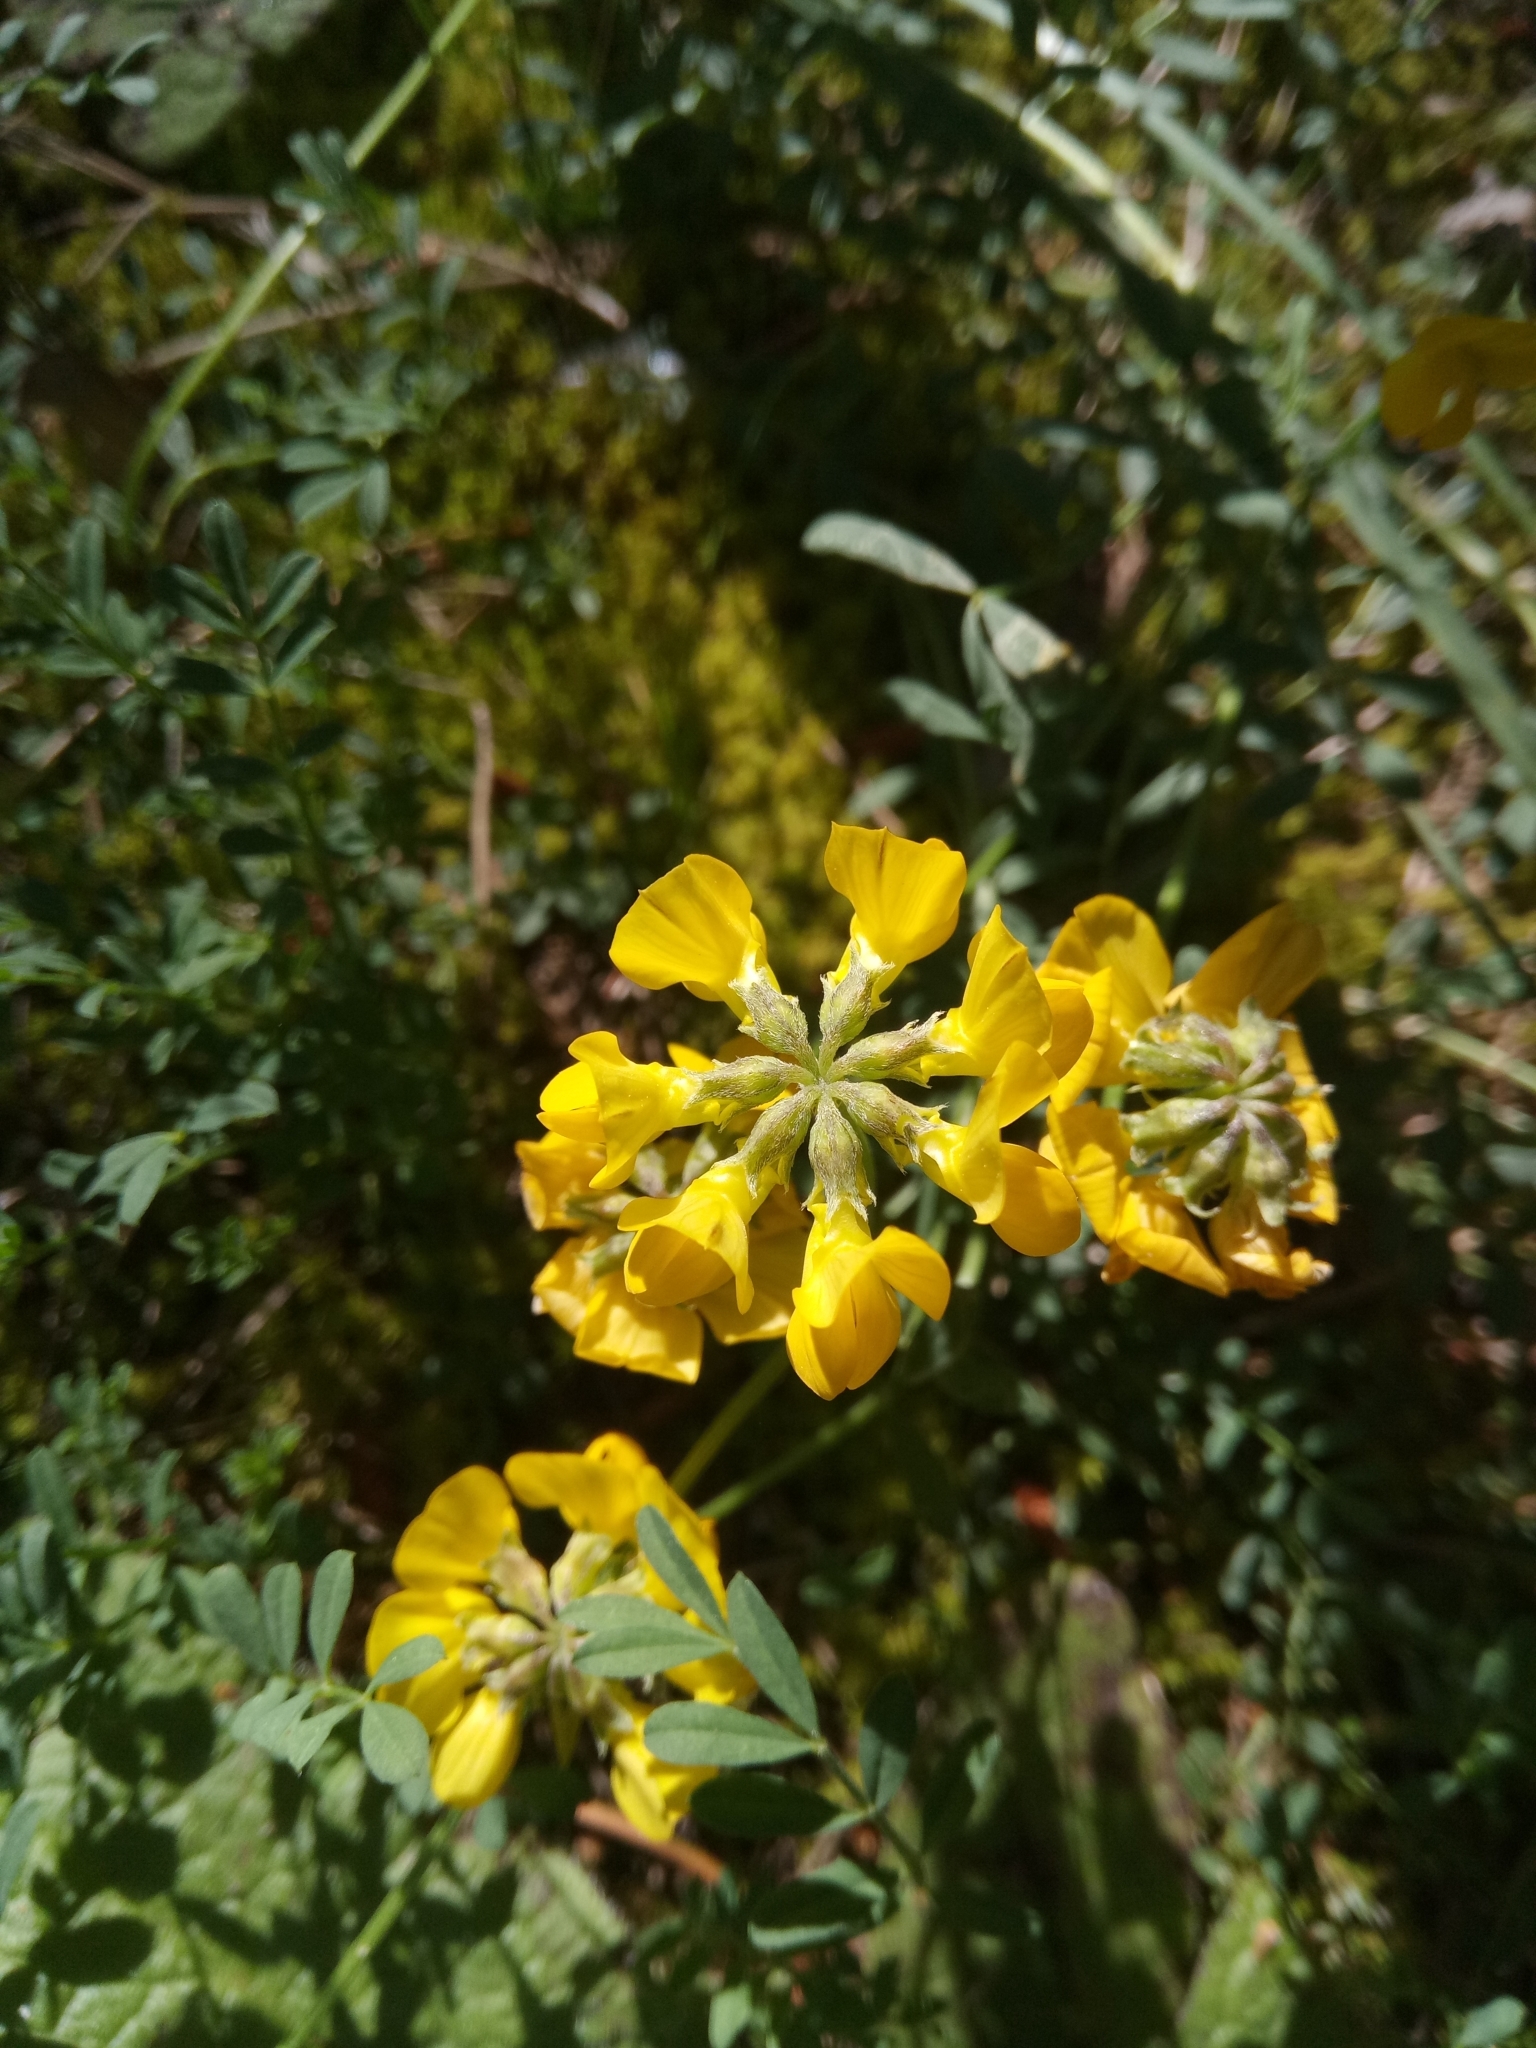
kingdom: Plantae
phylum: Tracheophyta
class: Magnoliopsida
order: Fabales
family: Fabaceae
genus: Hippocrepis
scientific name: Hippocrepis atlantica
